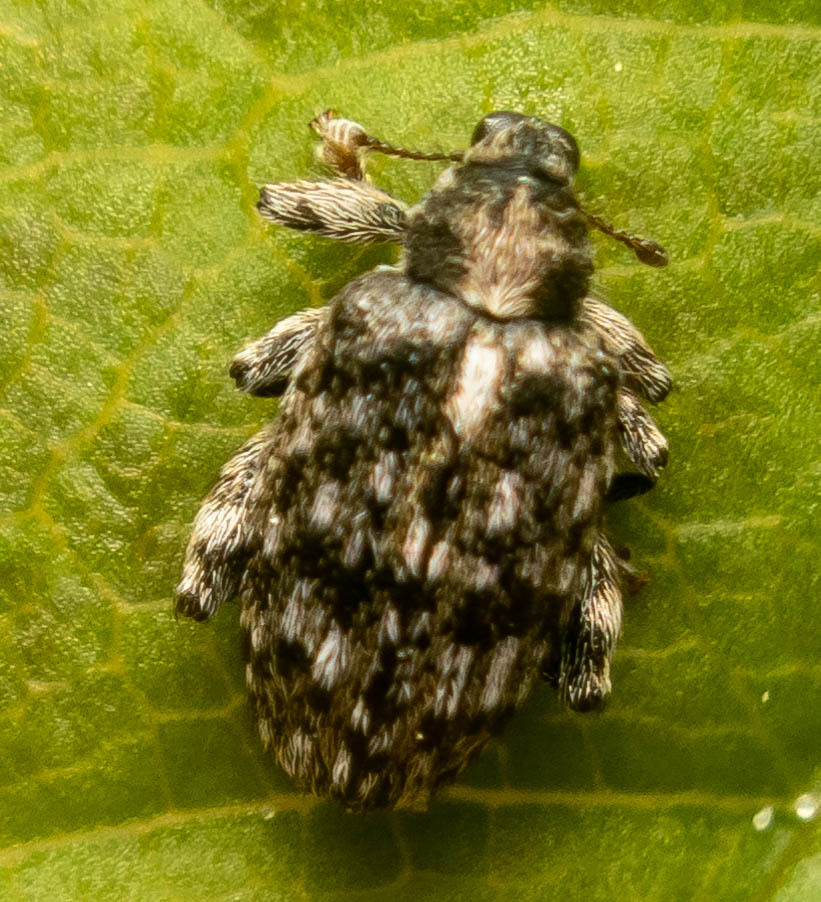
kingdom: Animalia
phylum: Arthropoda
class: Insecta
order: Coleoptera
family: Curculionidae
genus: Orchestes
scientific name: Orchestes pilosus
